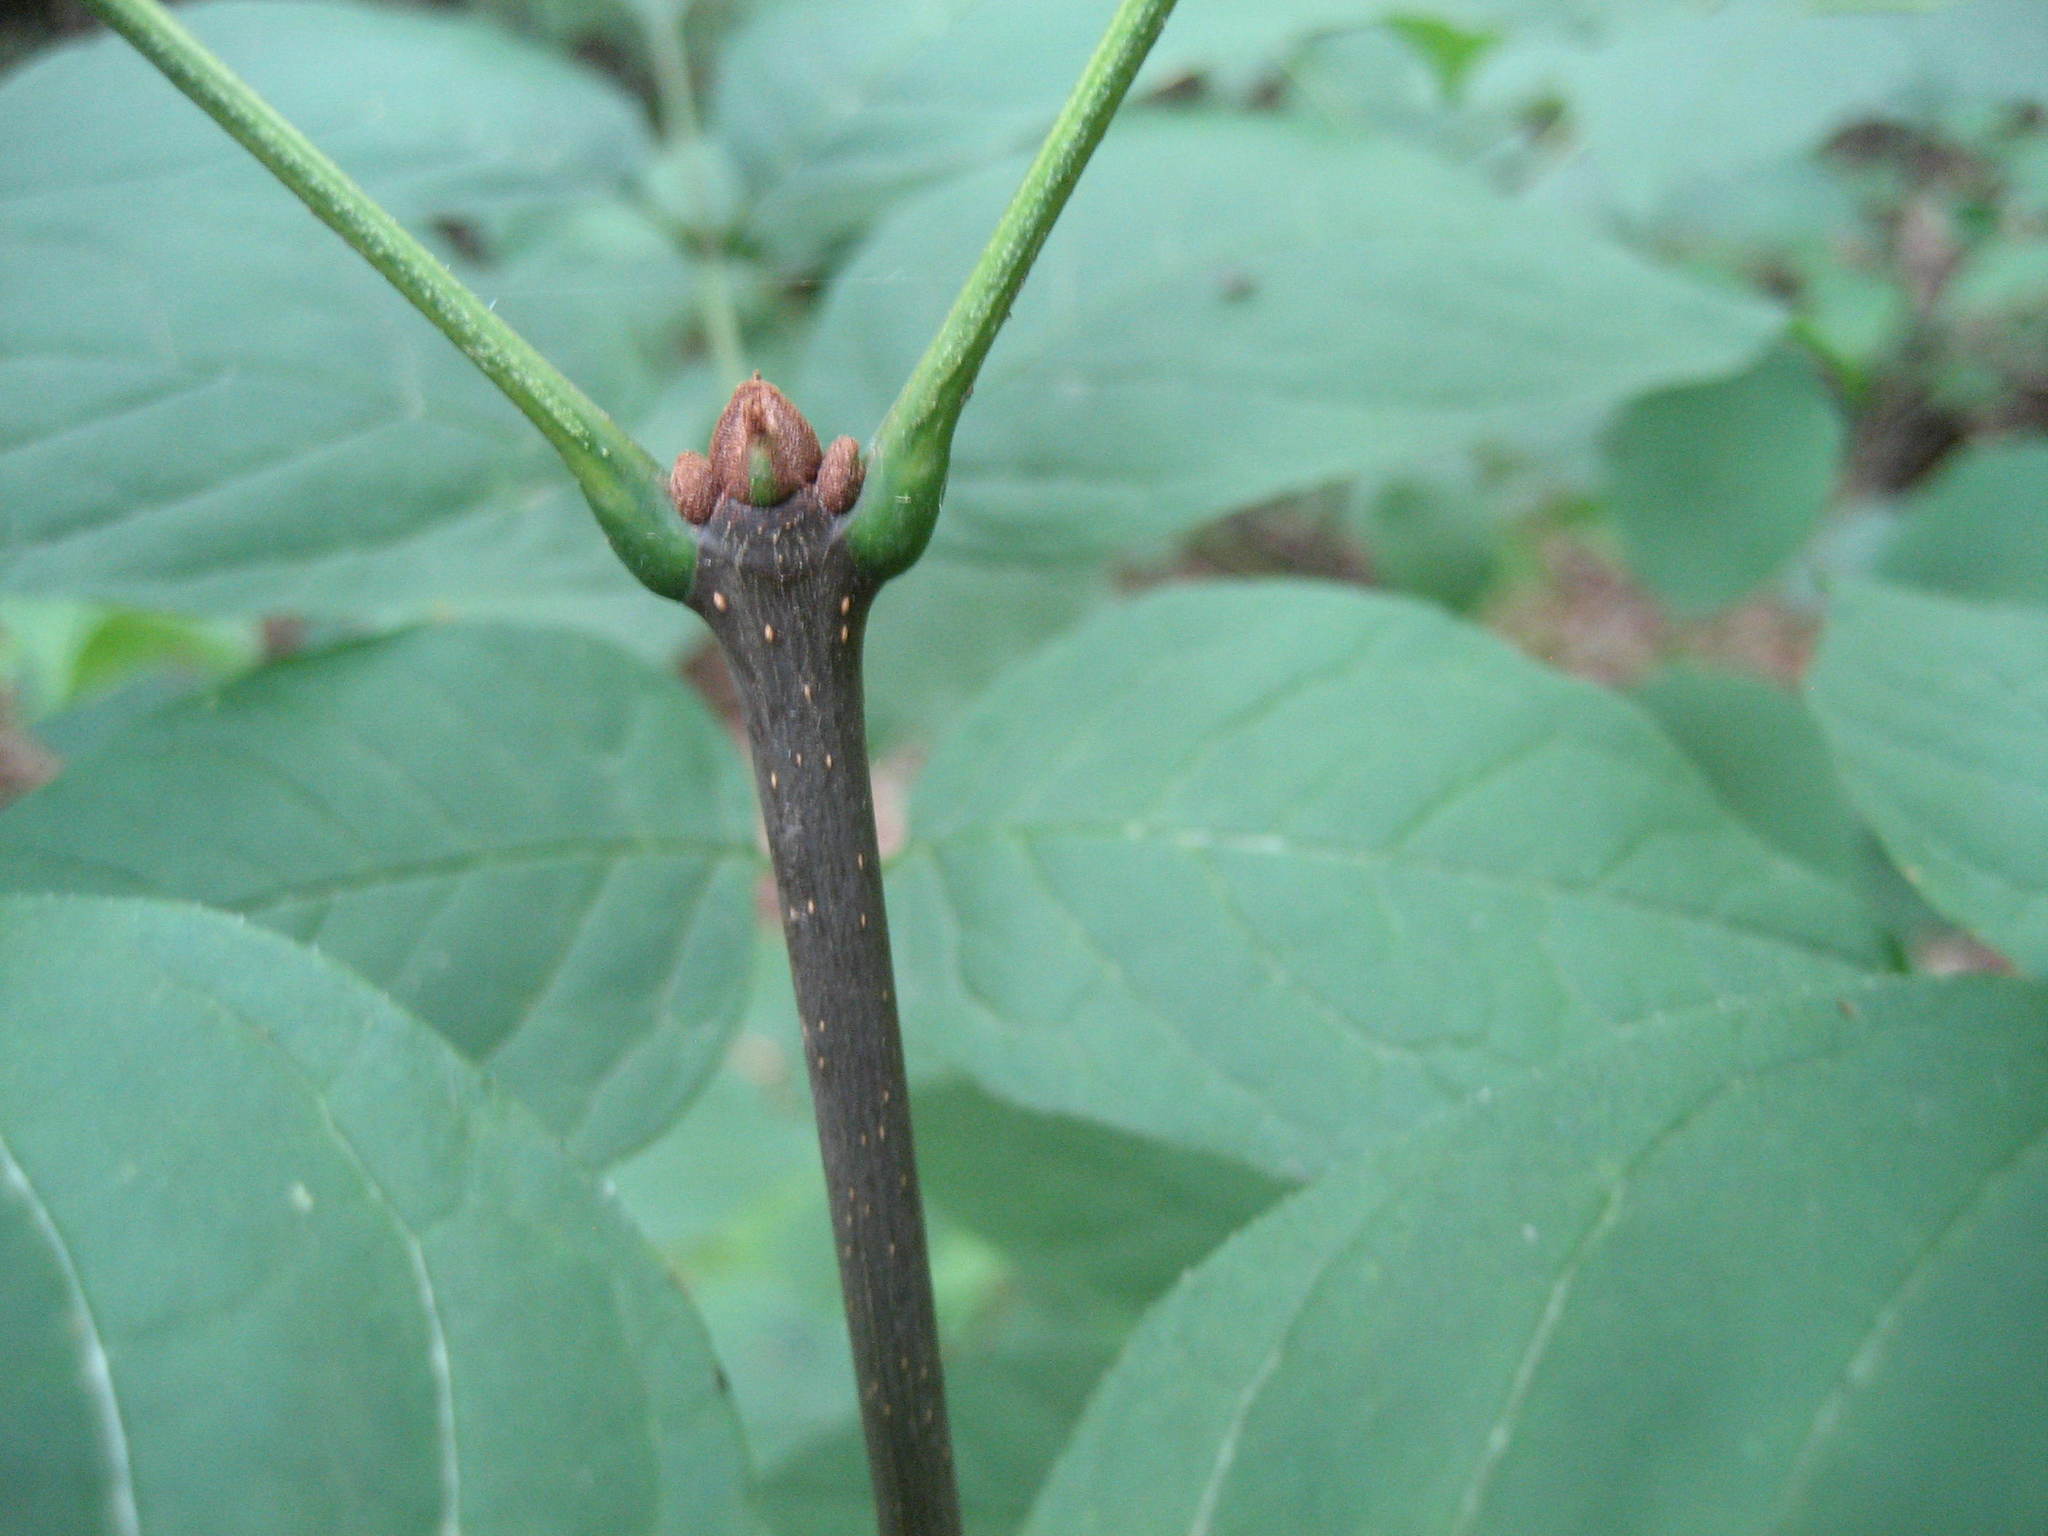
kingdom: Plantae
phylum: Tracheophyta
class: Magnoliopsida
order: Lamiales
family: Oleaceae
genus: Fraxinus
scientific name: Fraxinus americana
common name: White ash
